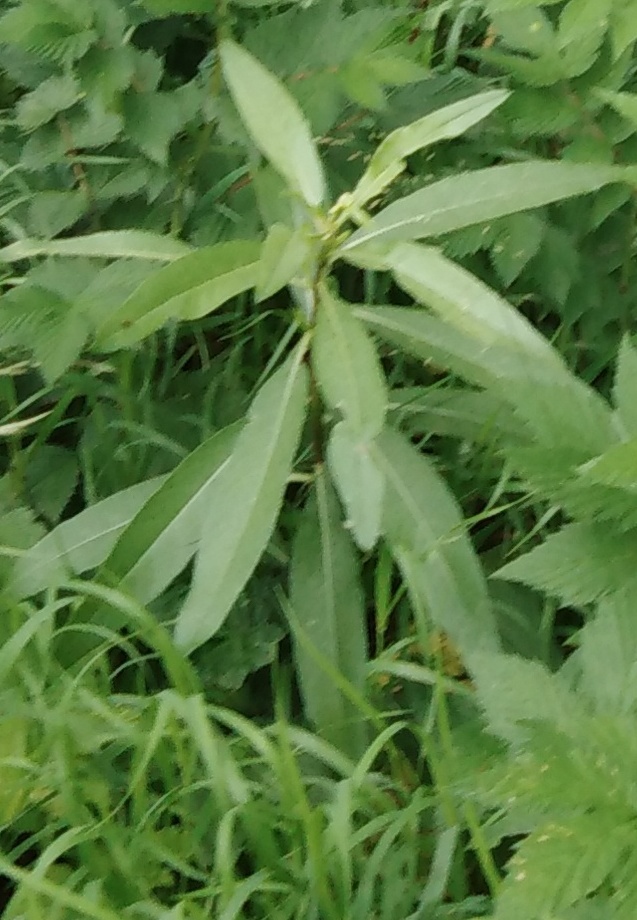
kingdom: Plantae
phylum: Tracheophyta
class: Magnoliopsida
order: Asterales
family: Asteraceae
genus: Cirsium
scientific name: Cirsium arvense
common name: Creeping thistle
